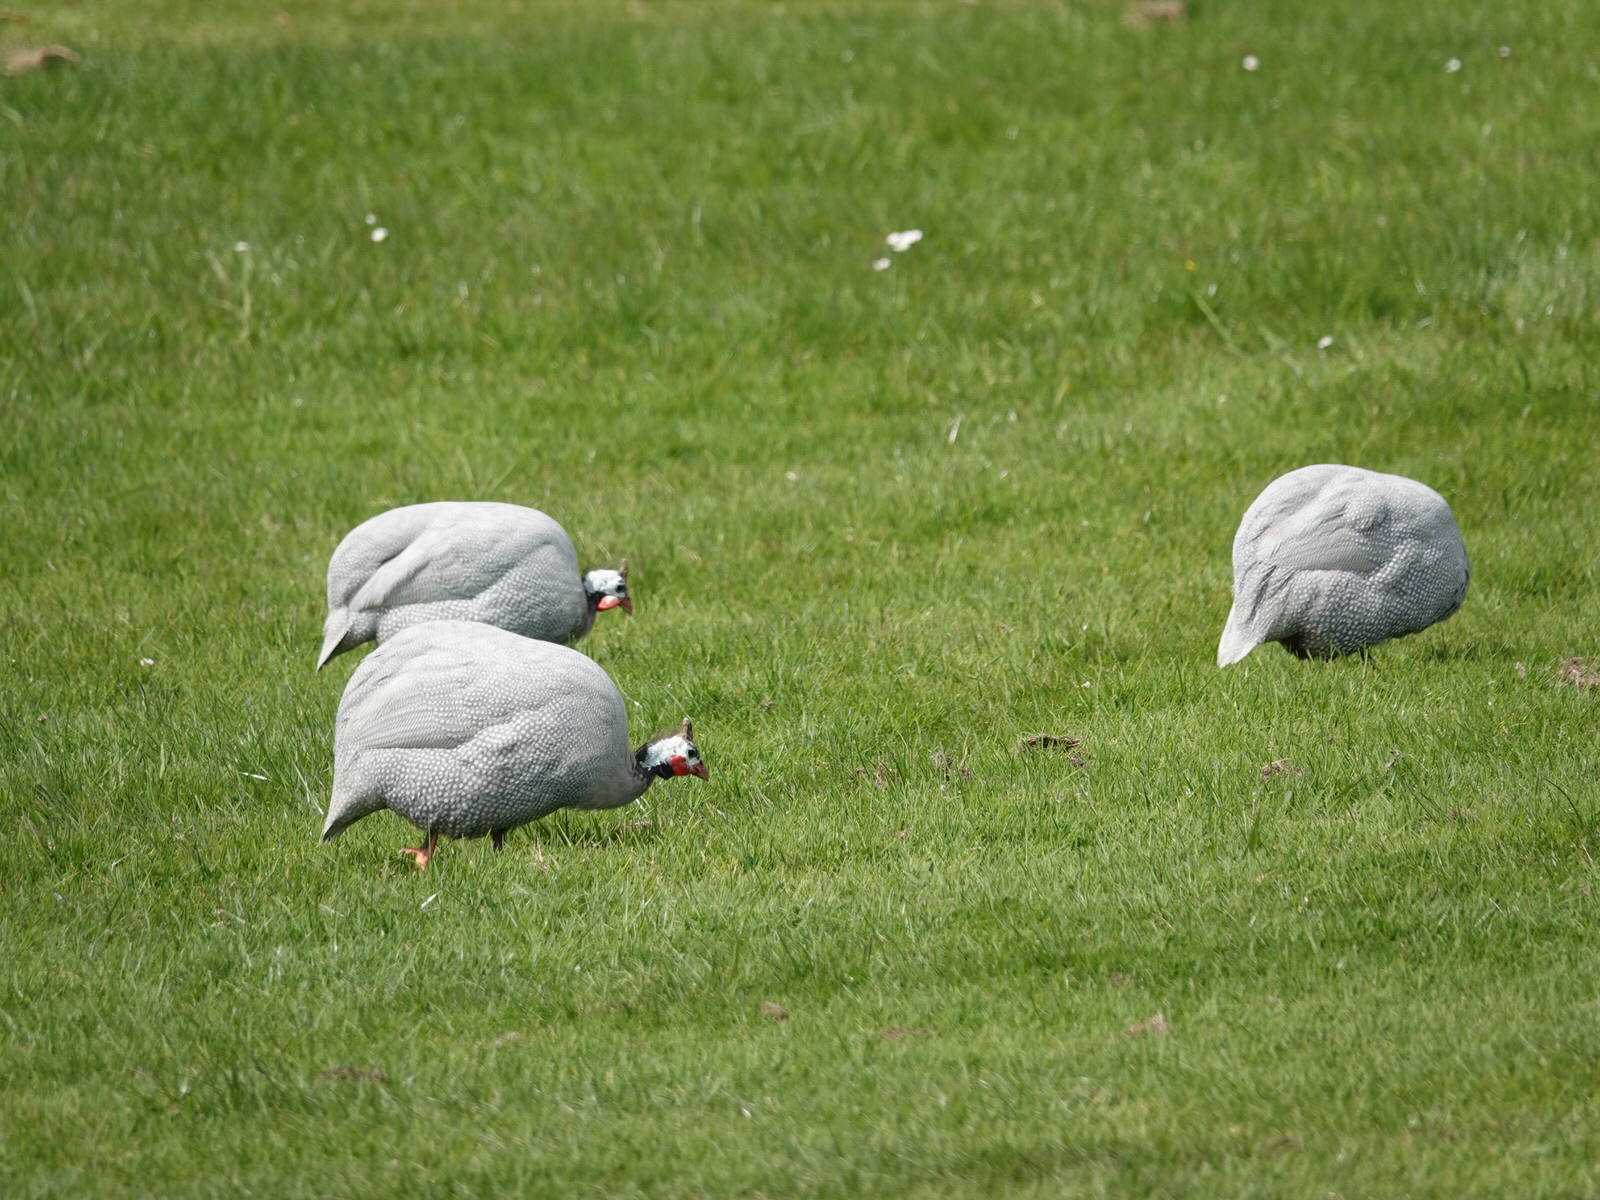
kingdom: Animalia
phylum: Chordata
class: Aves
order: Galliformes
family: Numididae
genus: Numida
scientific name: Numida meleagris
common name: Helmeted guineafowl
